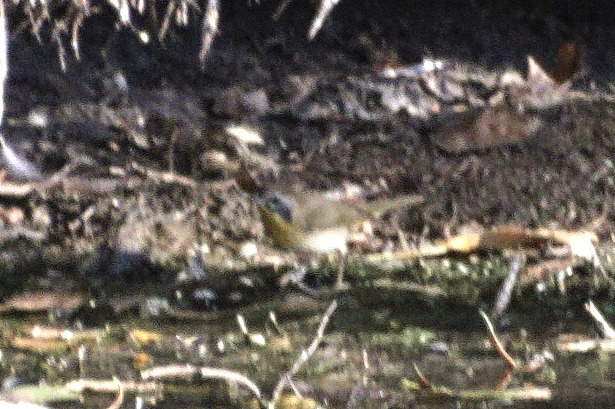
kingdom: Animalia
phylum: Chordata
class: Aves
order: Passeriformes
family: Parulidae
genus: Geothlypis
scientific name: Geothlypis trichas
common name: Common yellowthroat
